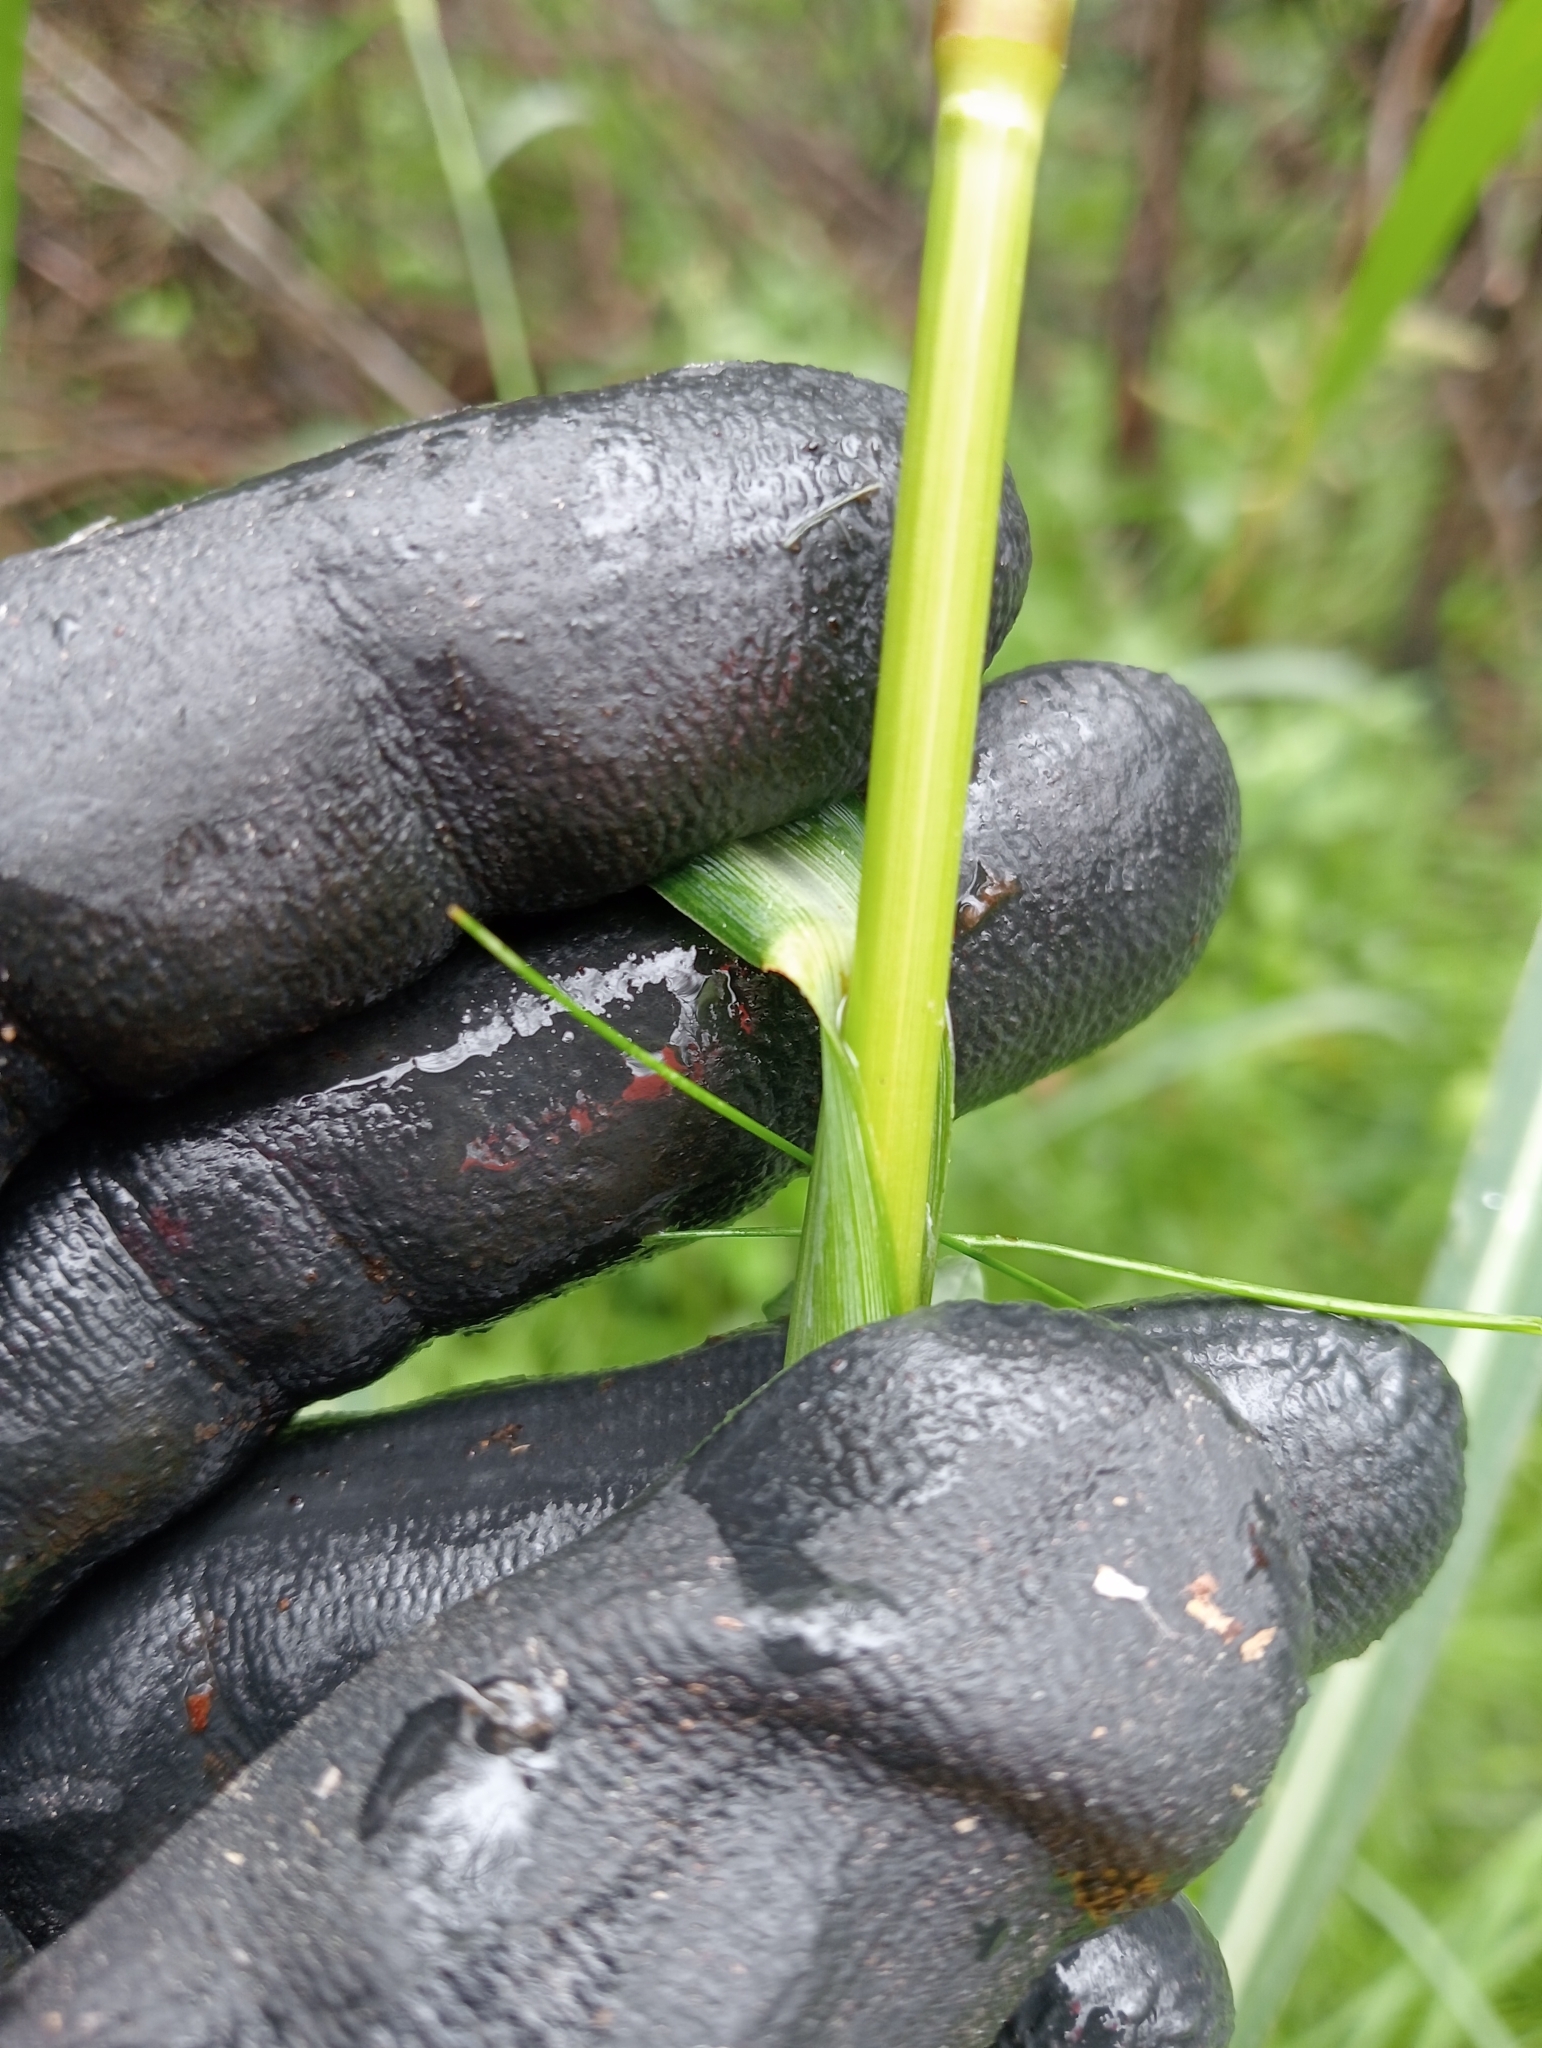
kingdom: Plantae
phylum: Tracheophyta
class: Liliopsida
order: Poales
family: Poaceae
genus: Echinochloa
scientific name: Echinochloa crus-galli
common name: Cockspur
